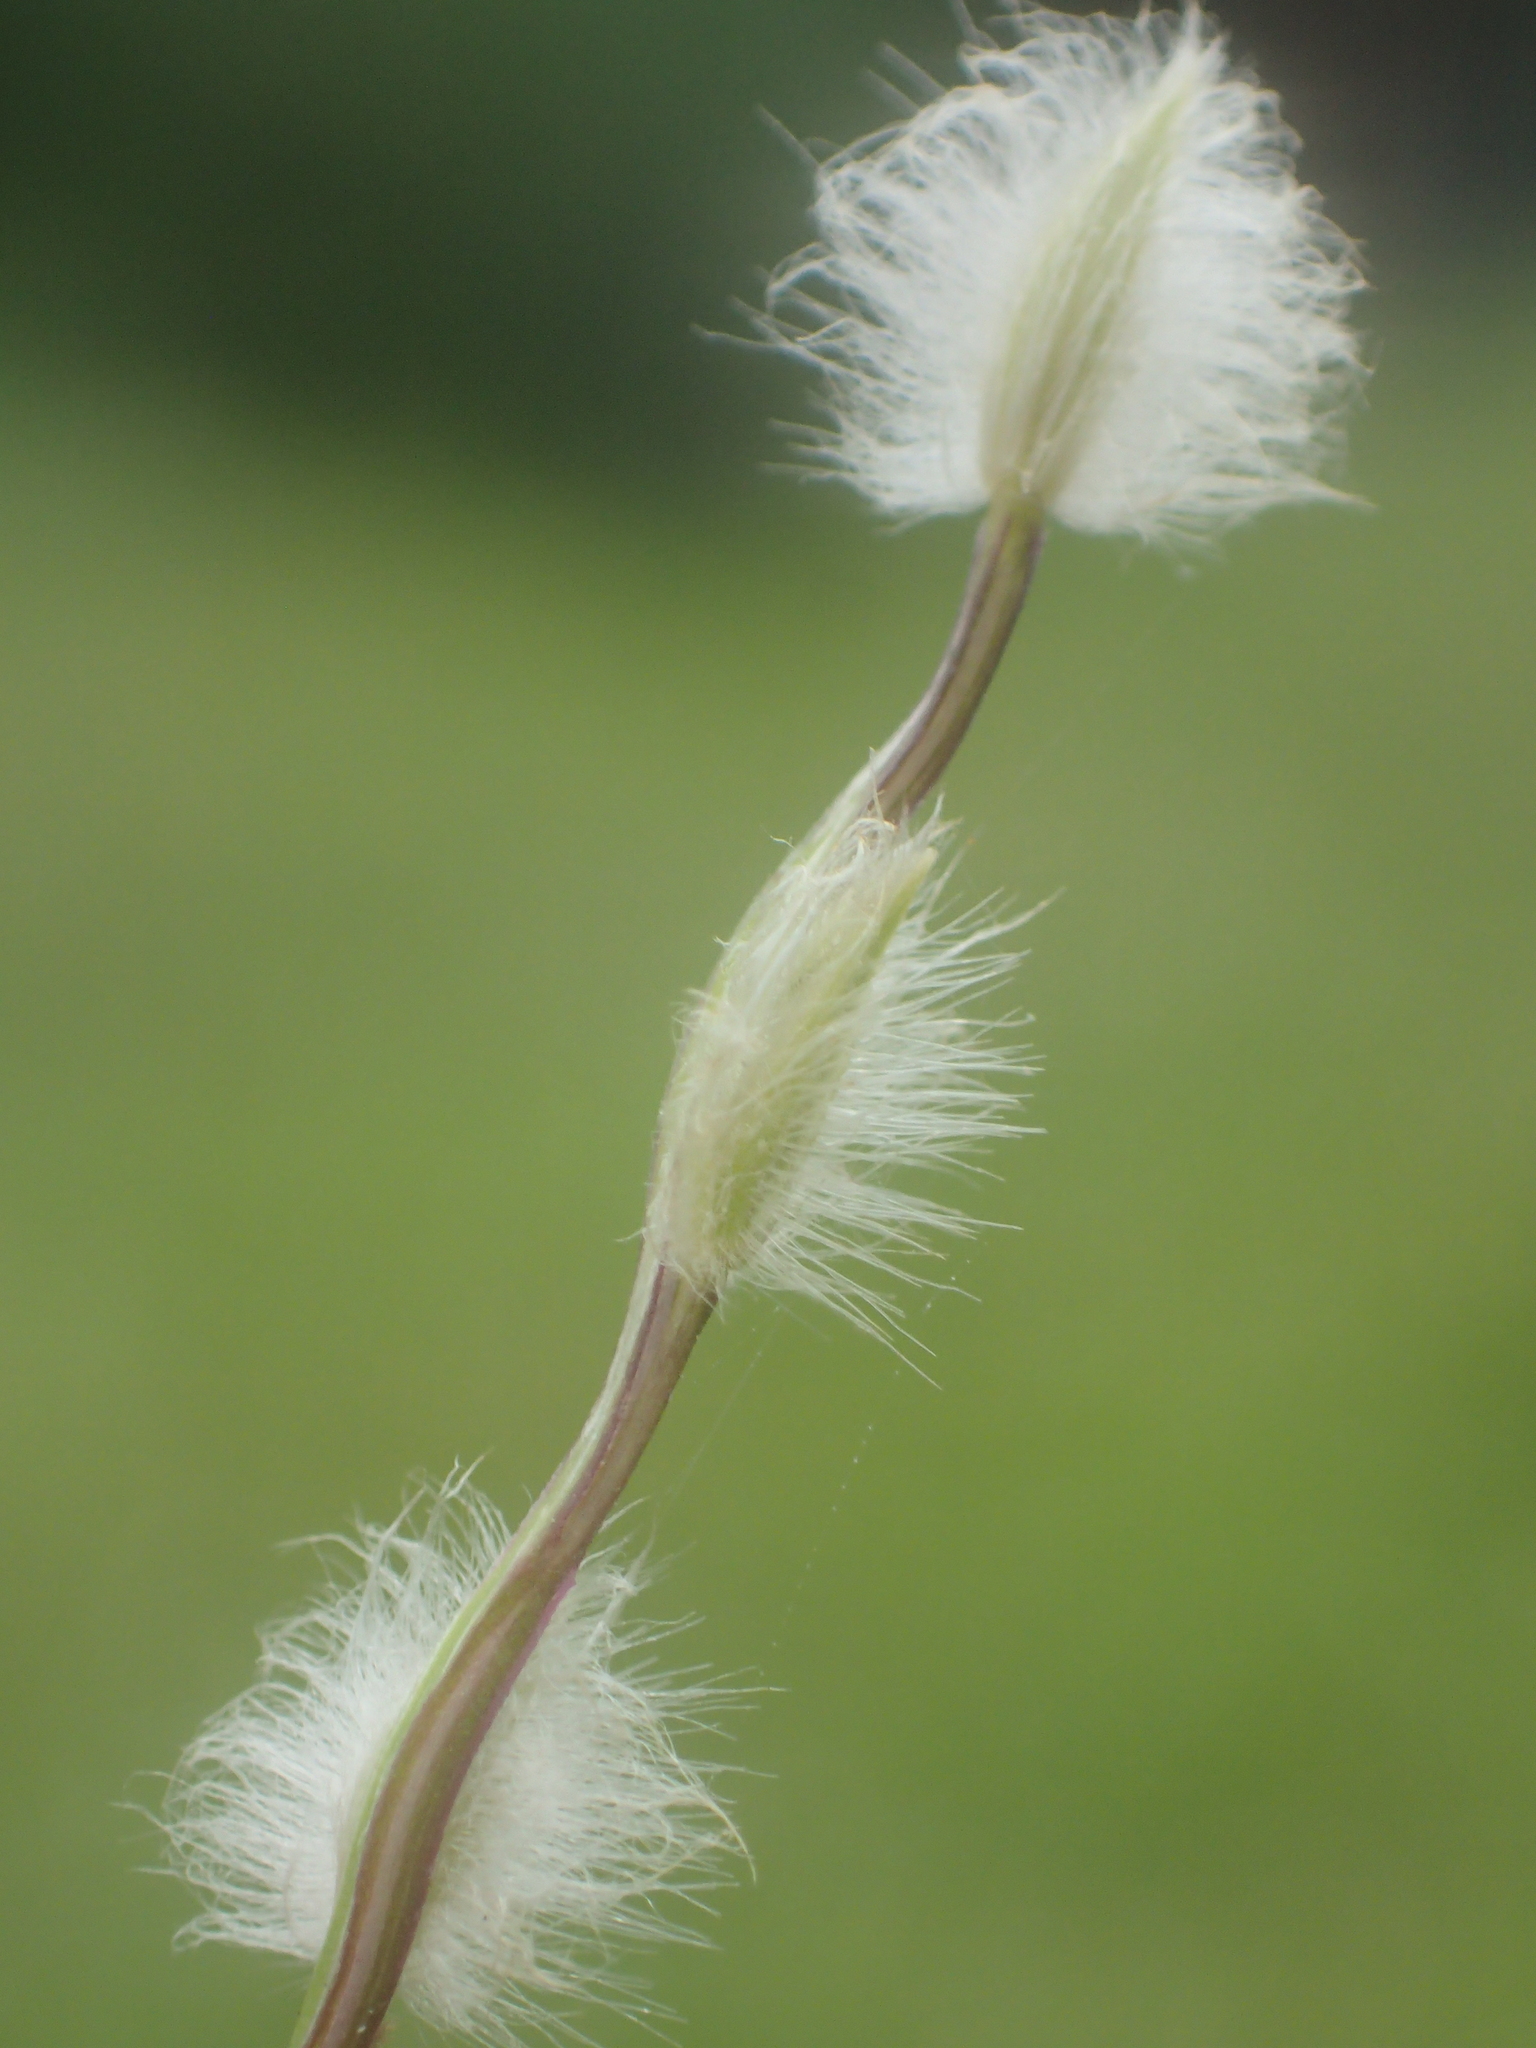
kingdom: Plantae
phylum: Tracheophyta
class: Liliopsida
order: Poales
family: Poaceae
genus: Digitaria
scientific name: Digitaria heterantha
